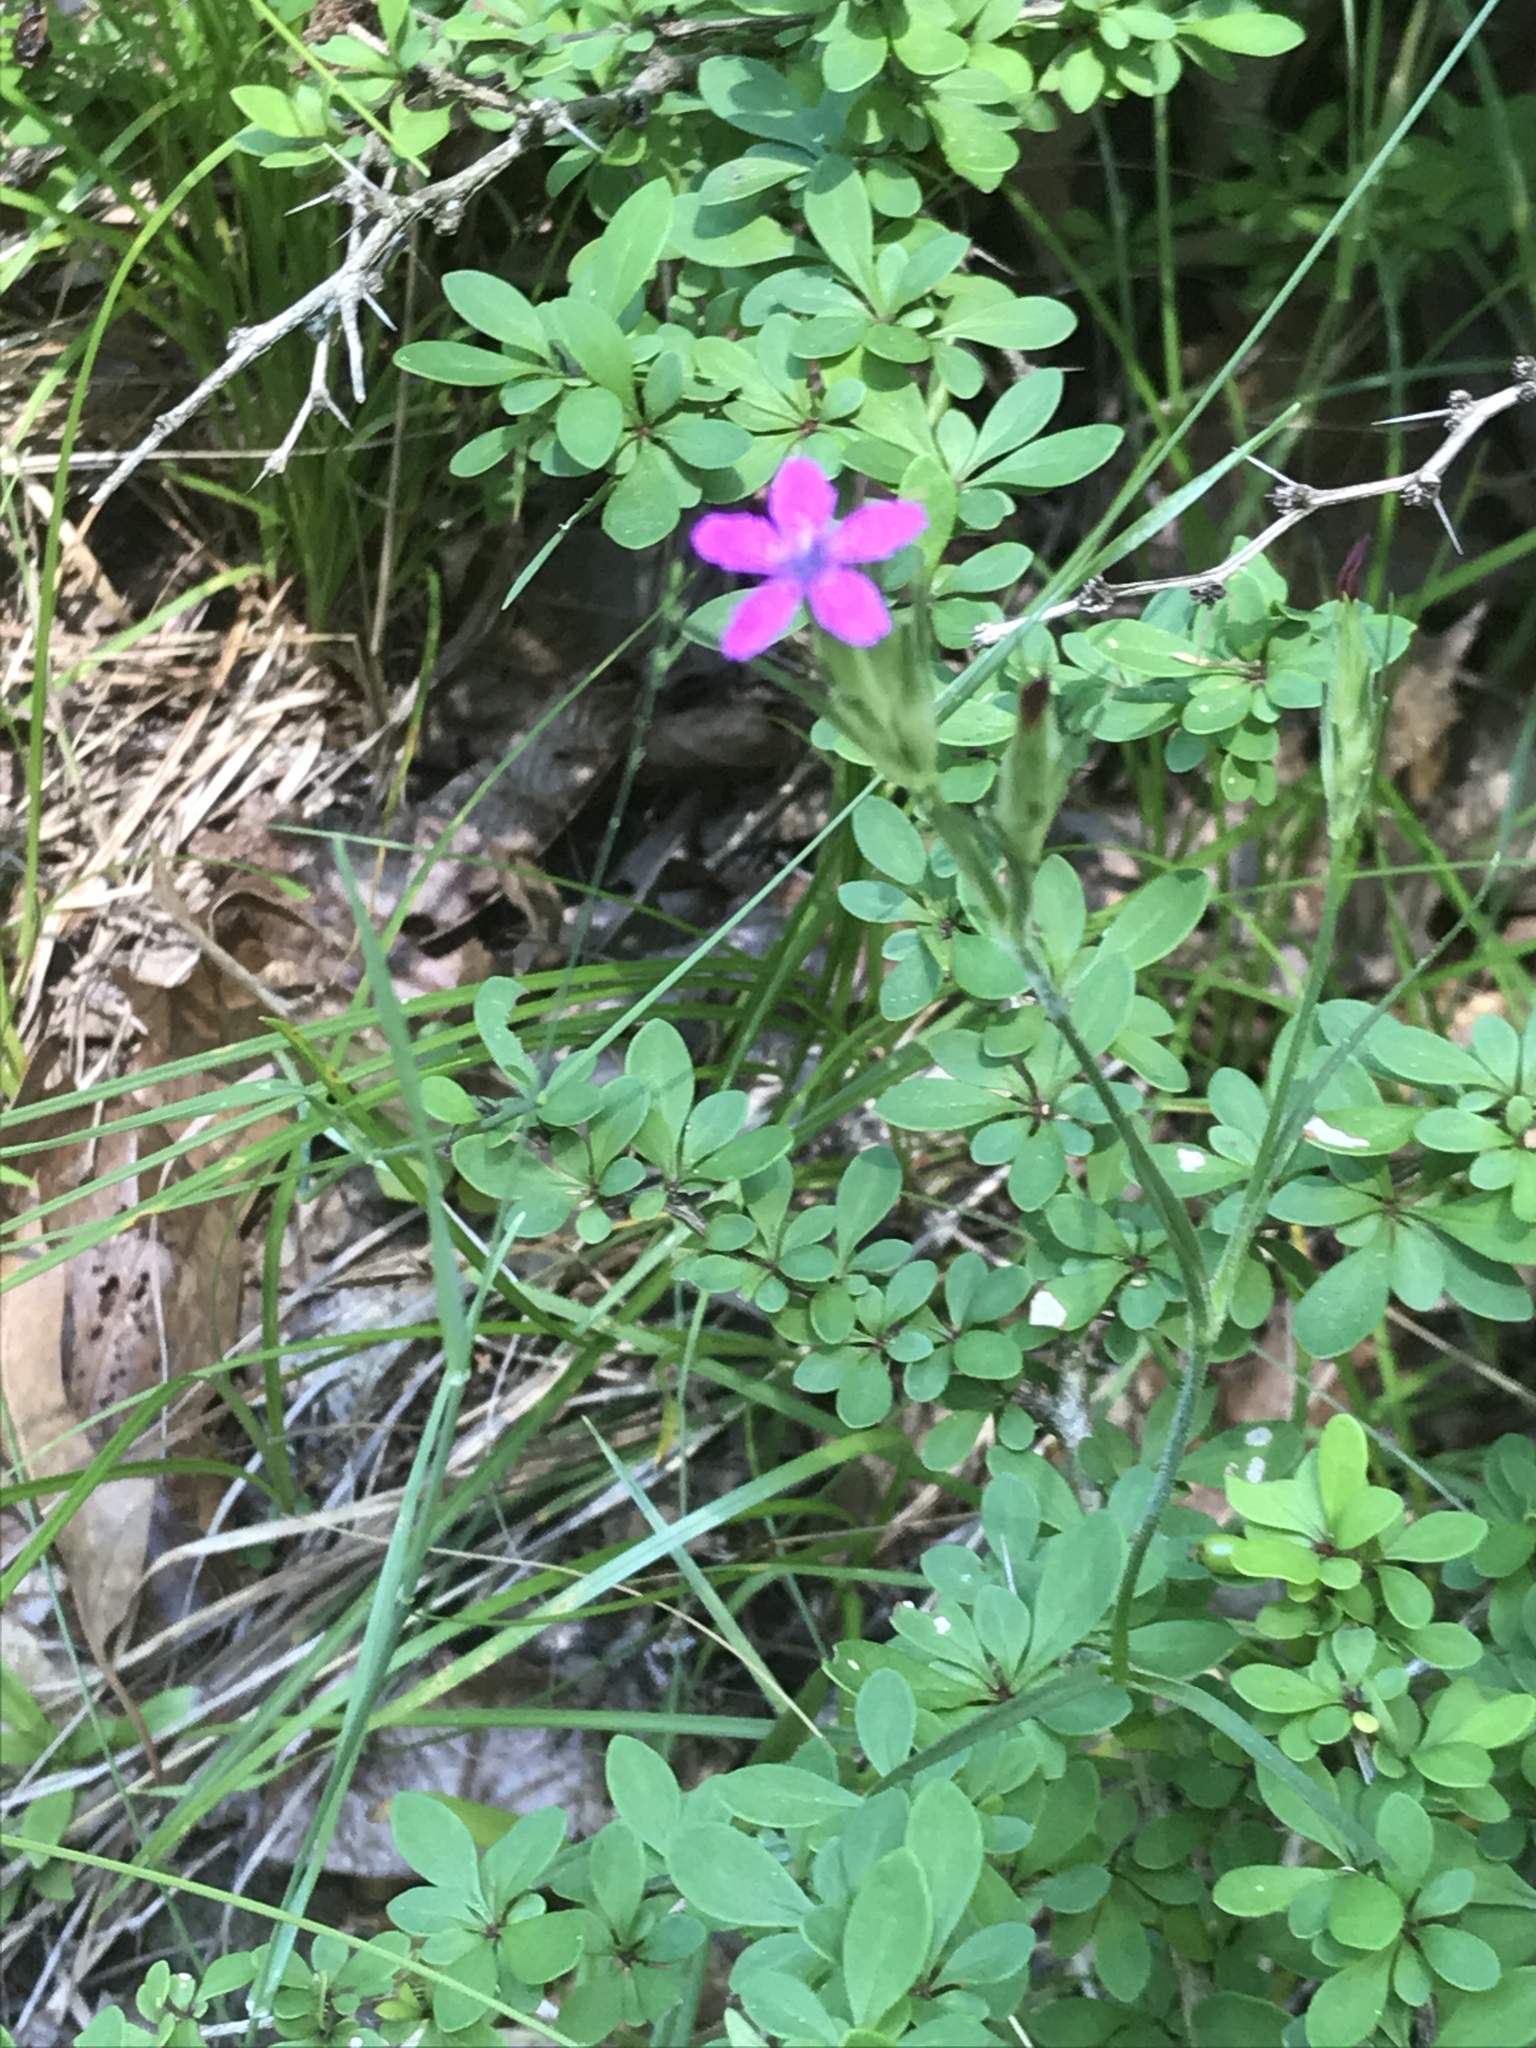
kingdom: Plantae
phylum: Tracheophyta
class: Magnoliopsida
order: Caryophyllales
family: Caryophyllaceae
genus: Dianthus
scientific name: Dianthus armeria
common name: Deptford pink
